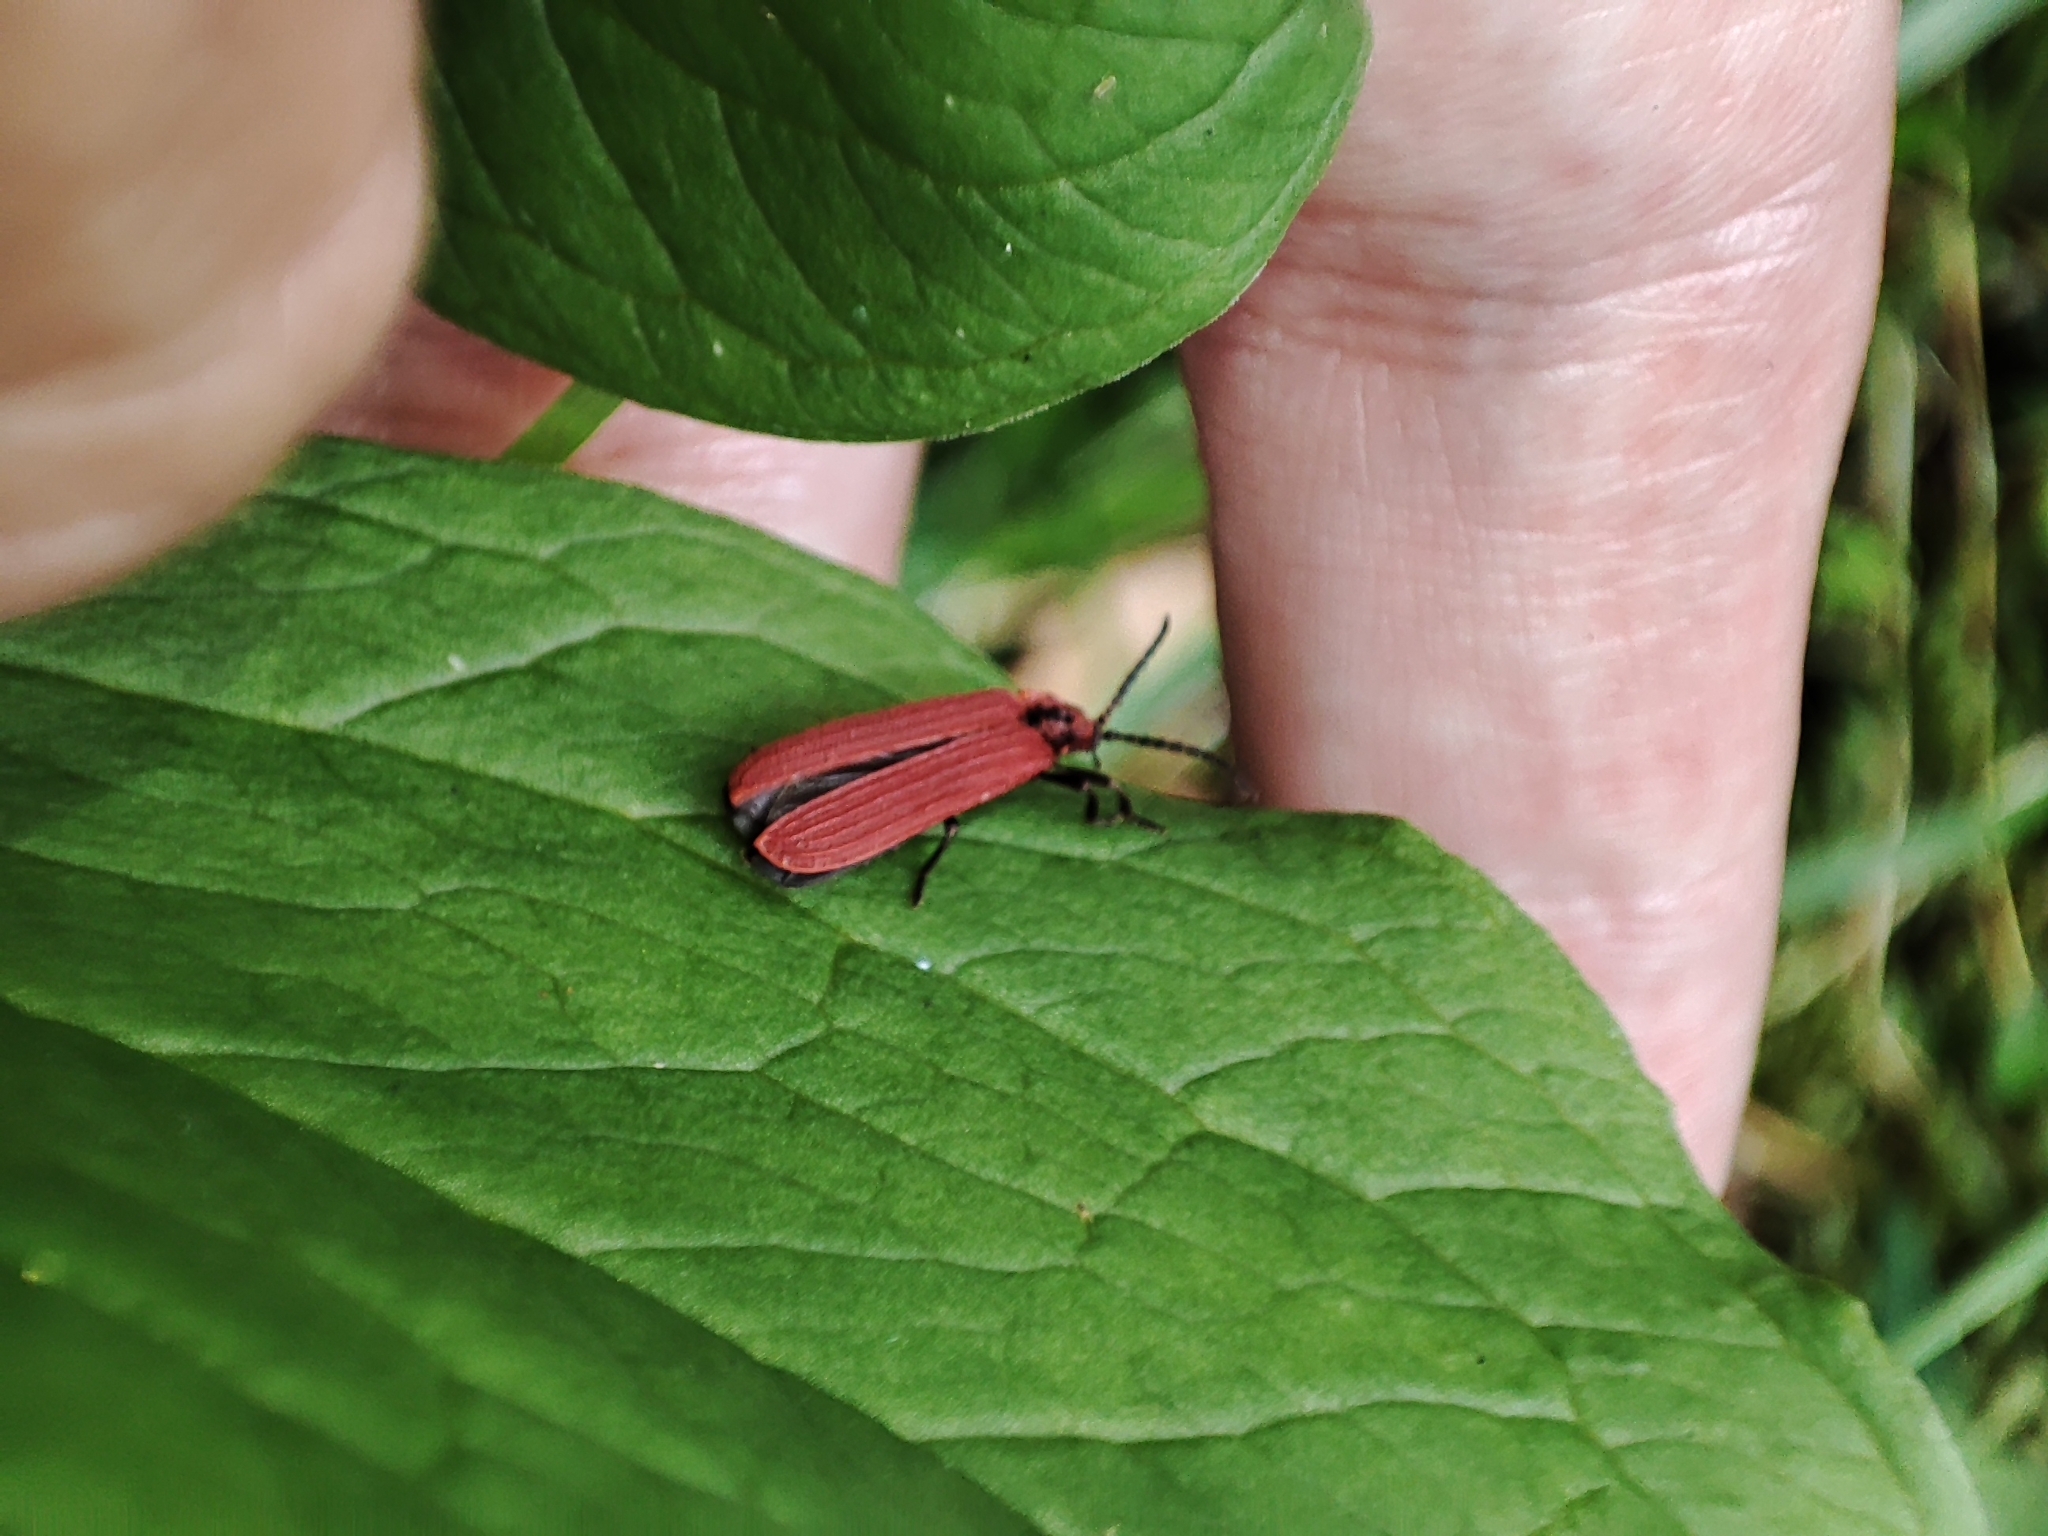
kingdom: Animalia
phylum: Arthropoda
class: Insecta
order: Coleoptera
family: Lycidae
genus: Dictyoptera
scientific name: Dictyoptera aurora
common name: Golden net-winged beetle
